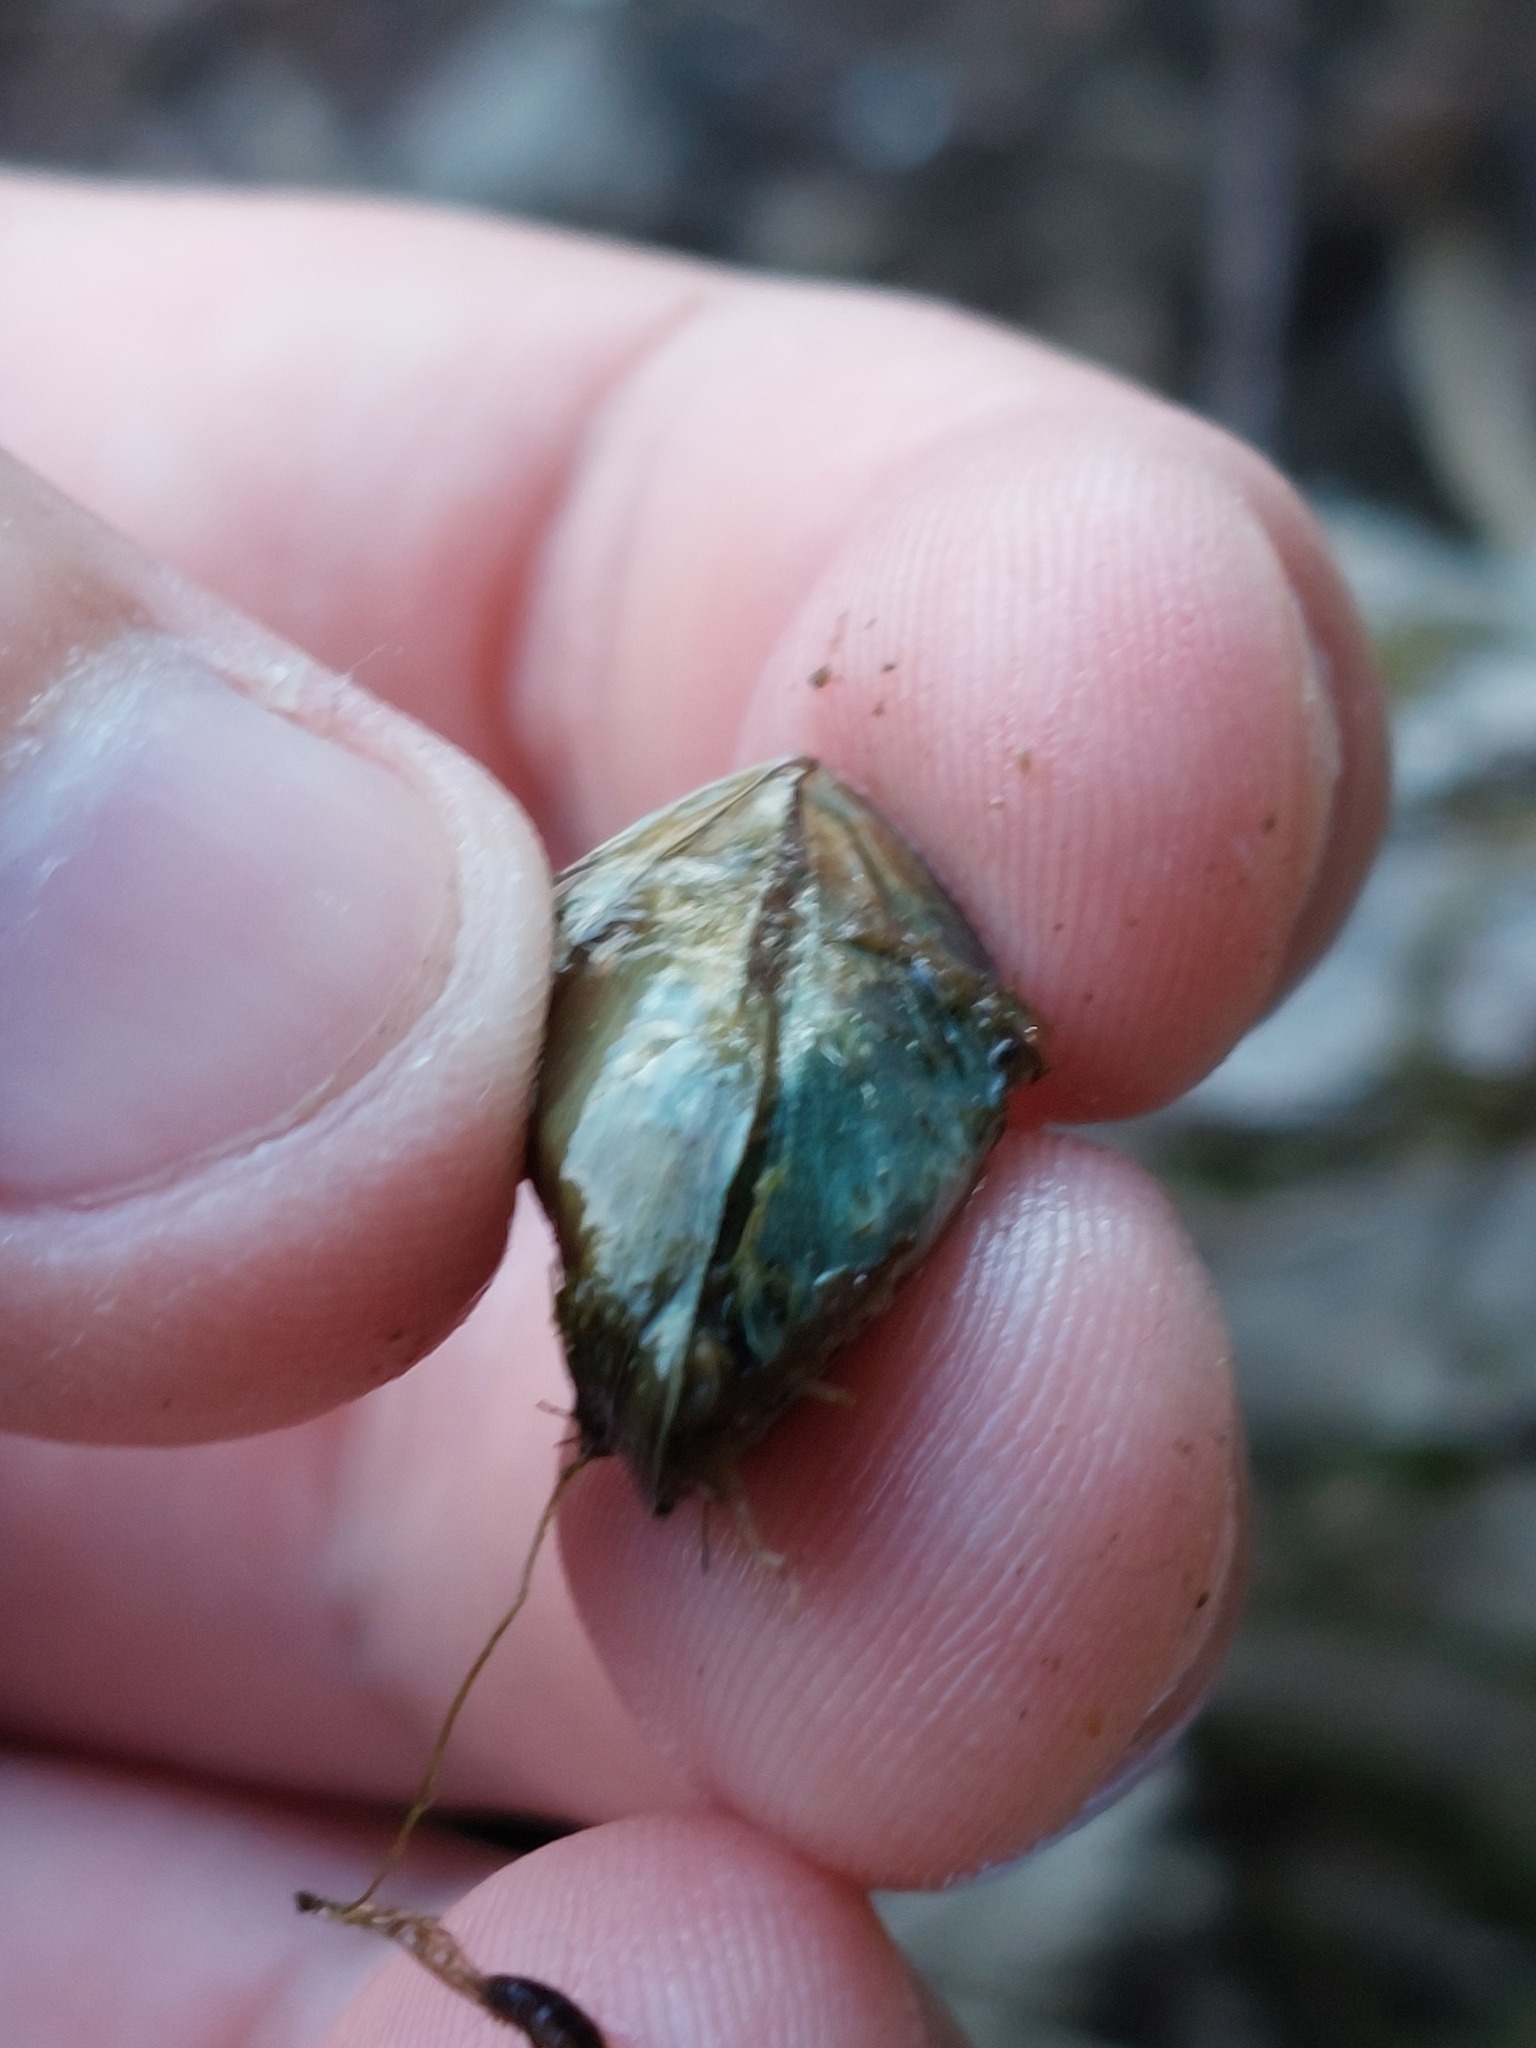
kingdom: Animalia
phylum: Mollusca
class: Bivalvia
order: Myida
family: Dreissenidae
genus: Dreissena
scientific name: Dreissena polymorpha
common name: Zebra mussel
